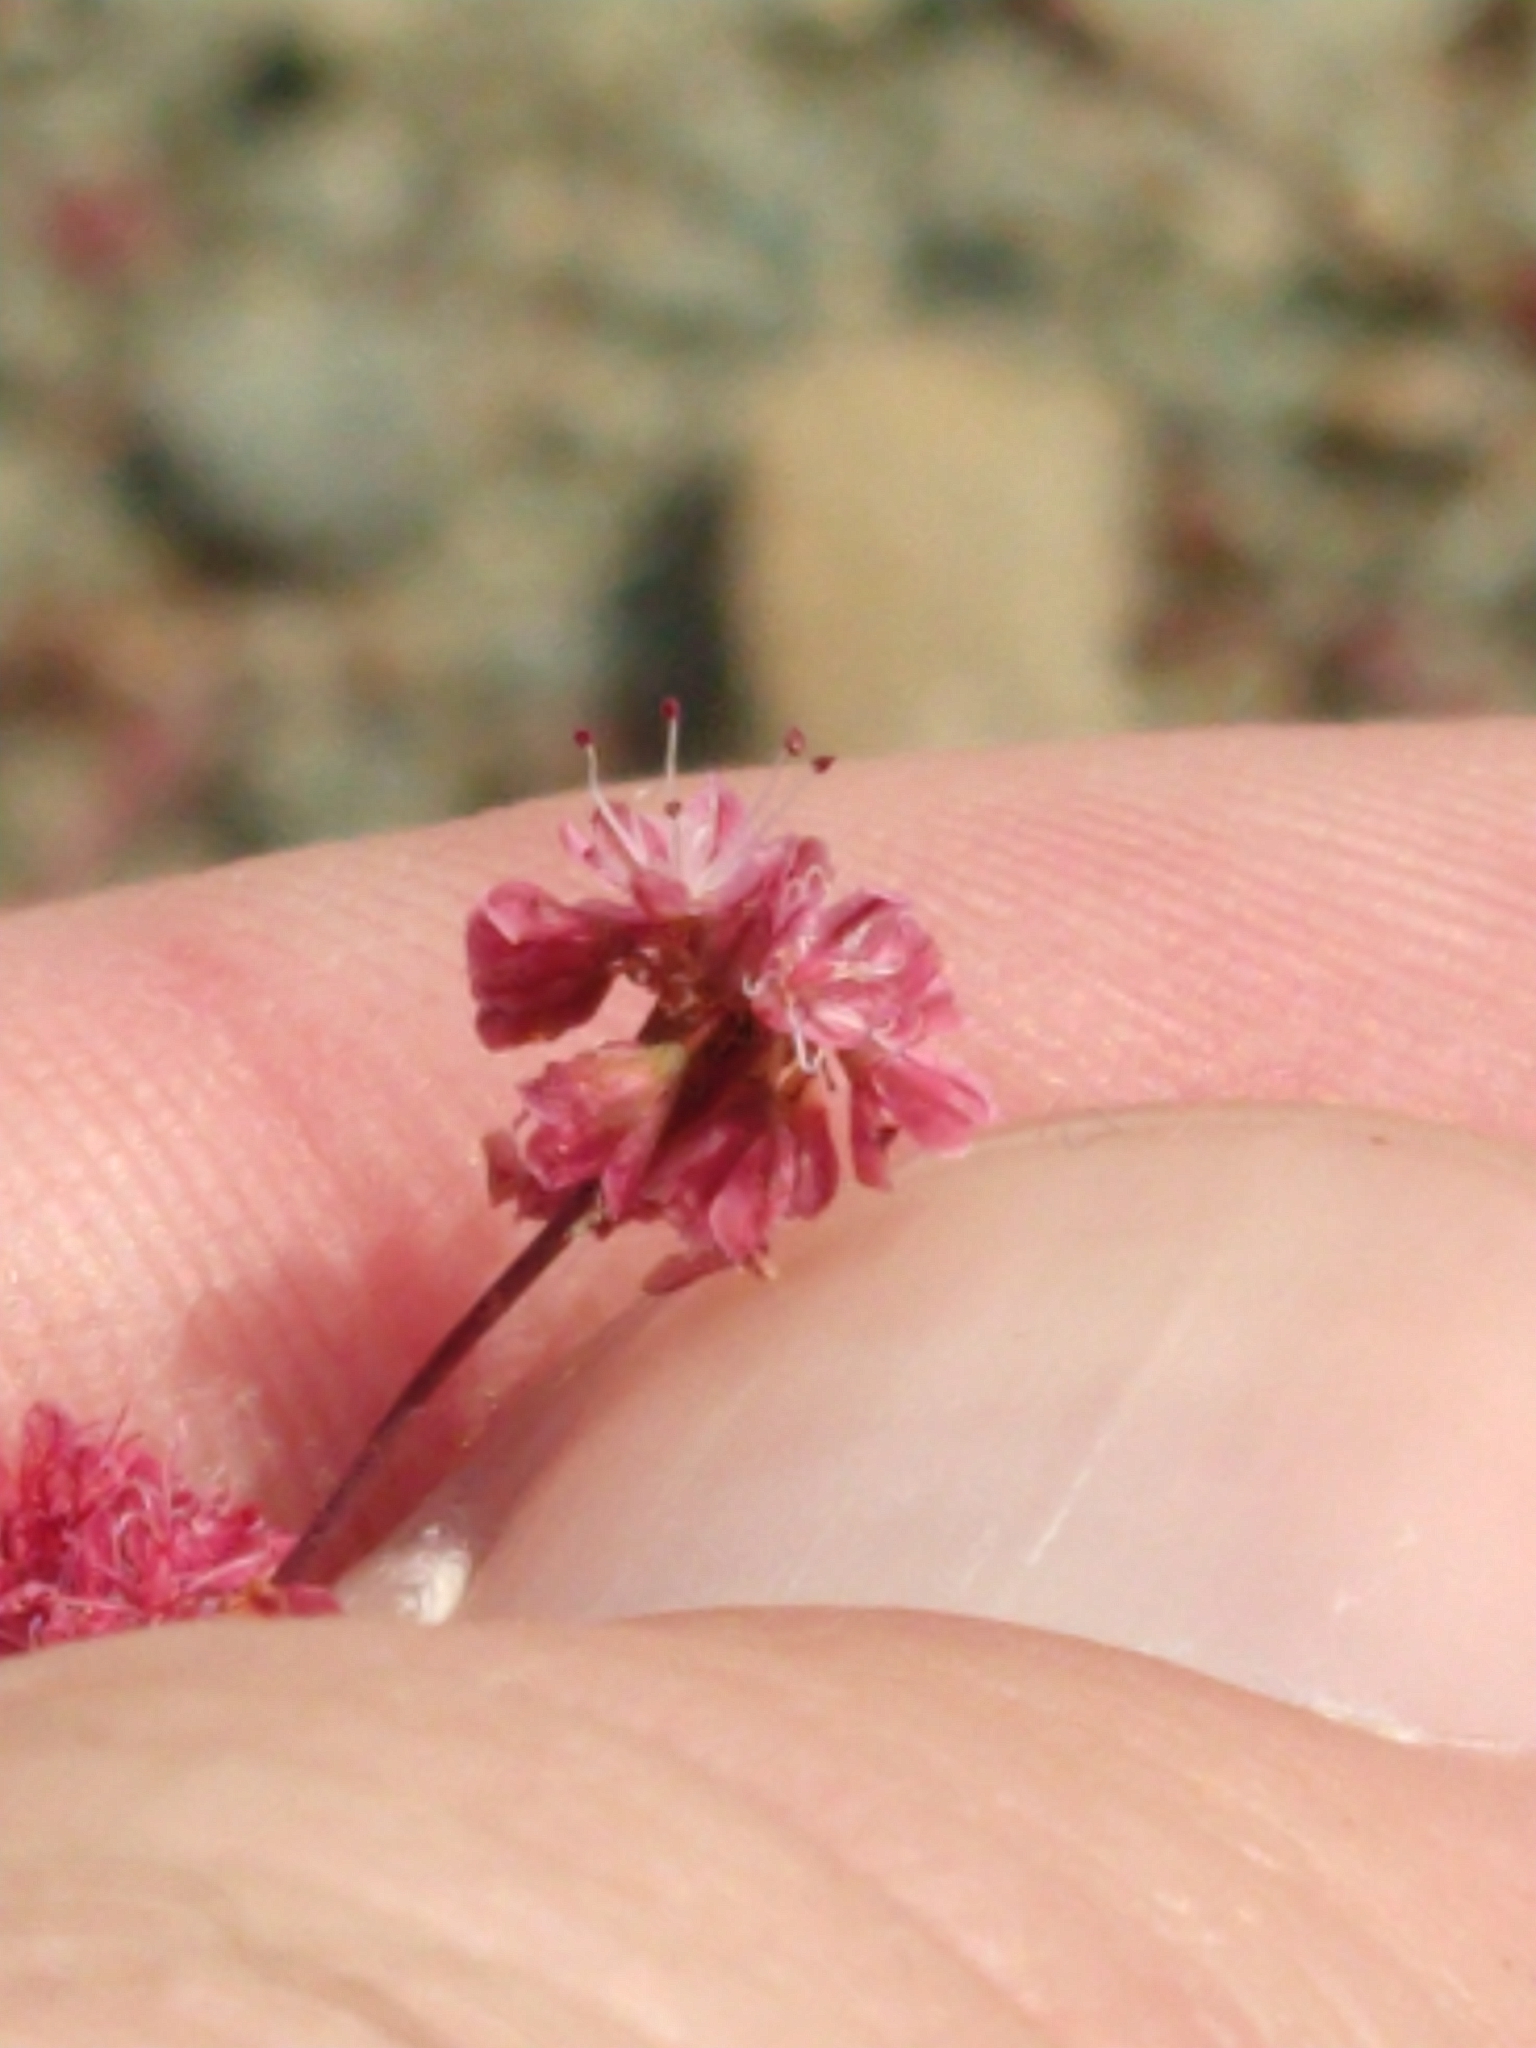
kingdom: Plantae
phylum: Tracheophyta
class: Magnoliopsida
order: Caryophyllales
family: Polygonaceae
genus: Eriogonum
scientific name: Eriogonum luteolum
